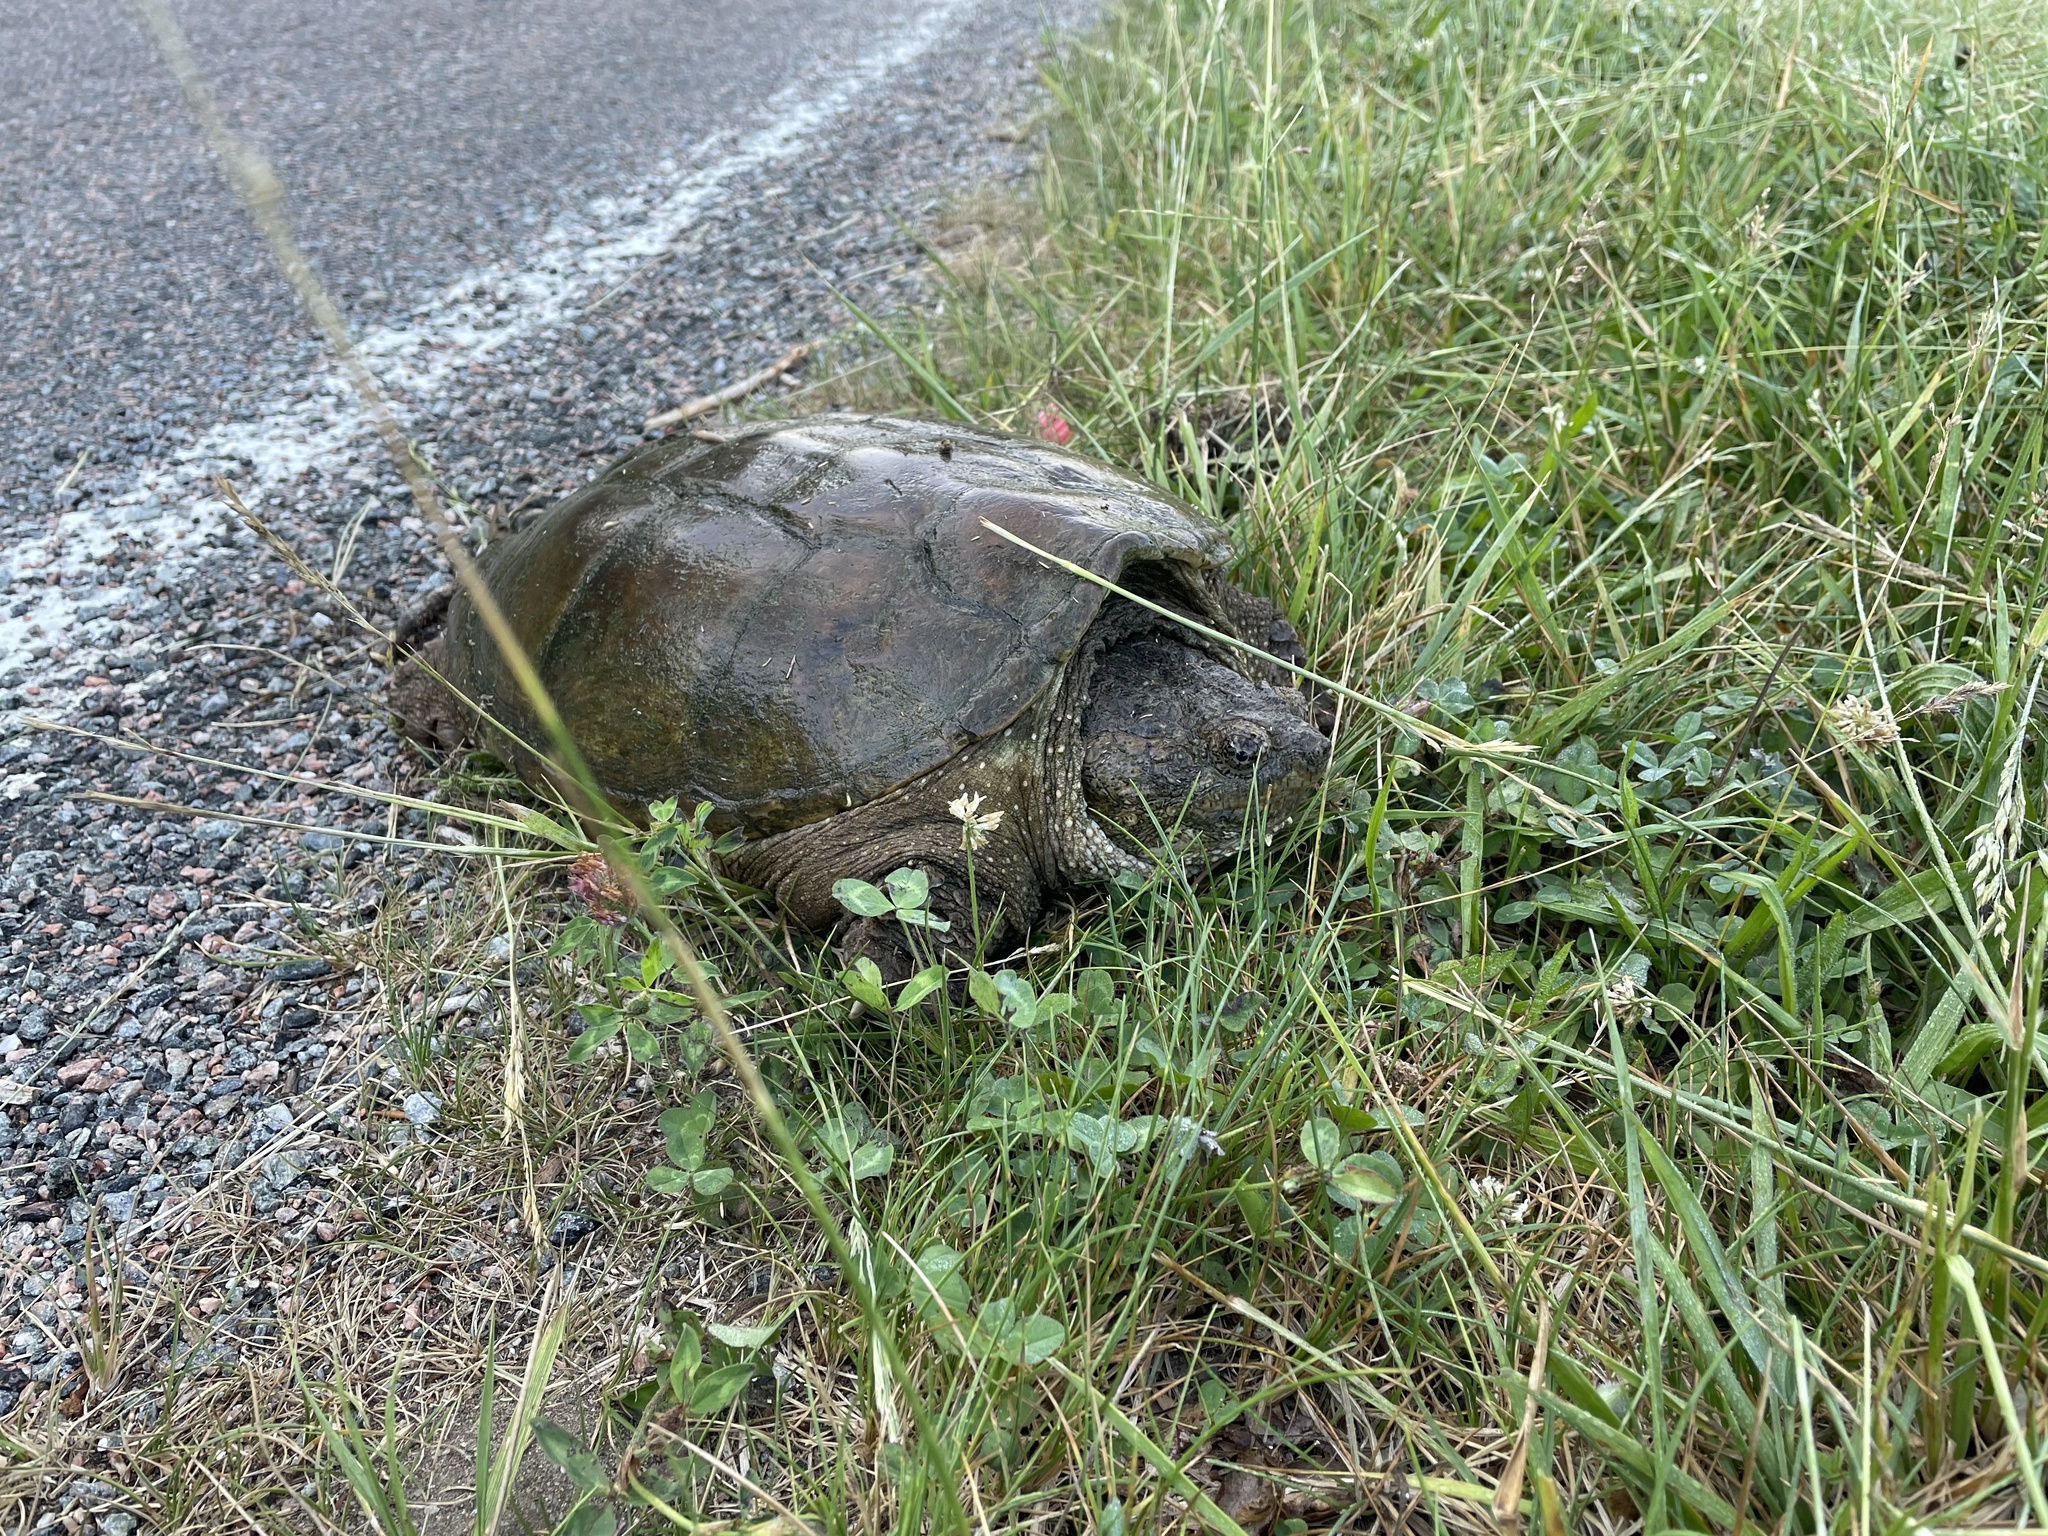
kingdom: Animalia
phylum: Chordata
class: Testudines
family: Chelydridae
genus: Chelydra
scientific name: Chelydra serpentina
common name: Common snapping turtle
